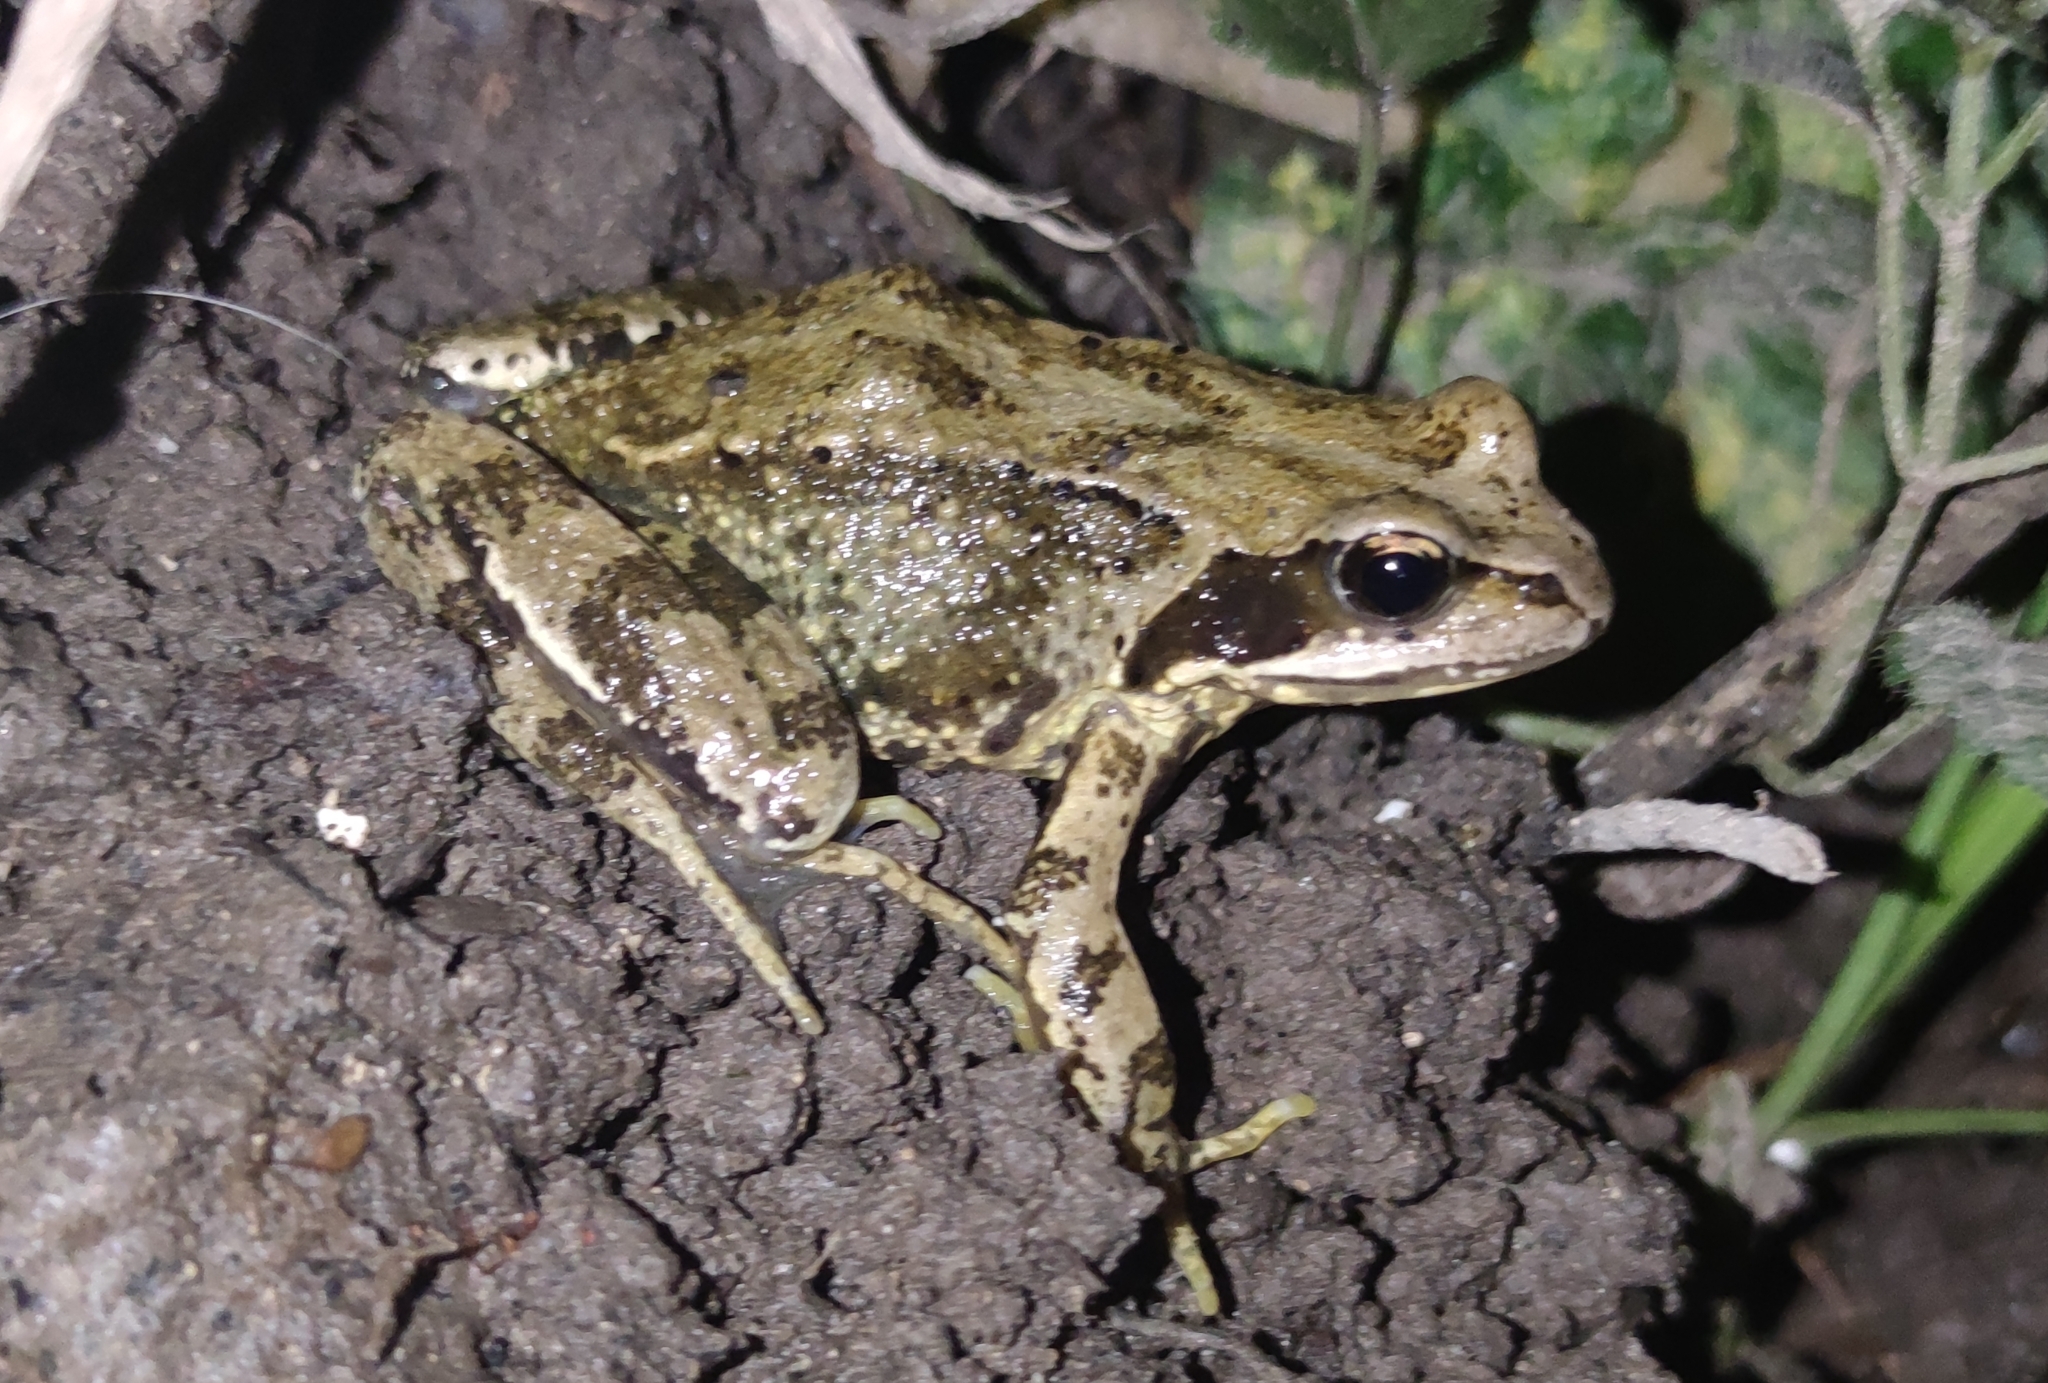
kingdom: Animalia
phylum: Chordata
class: Amphibia
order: Anura
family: Ranidae
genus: Rana
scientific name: Rana temporaria
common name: Common frog
